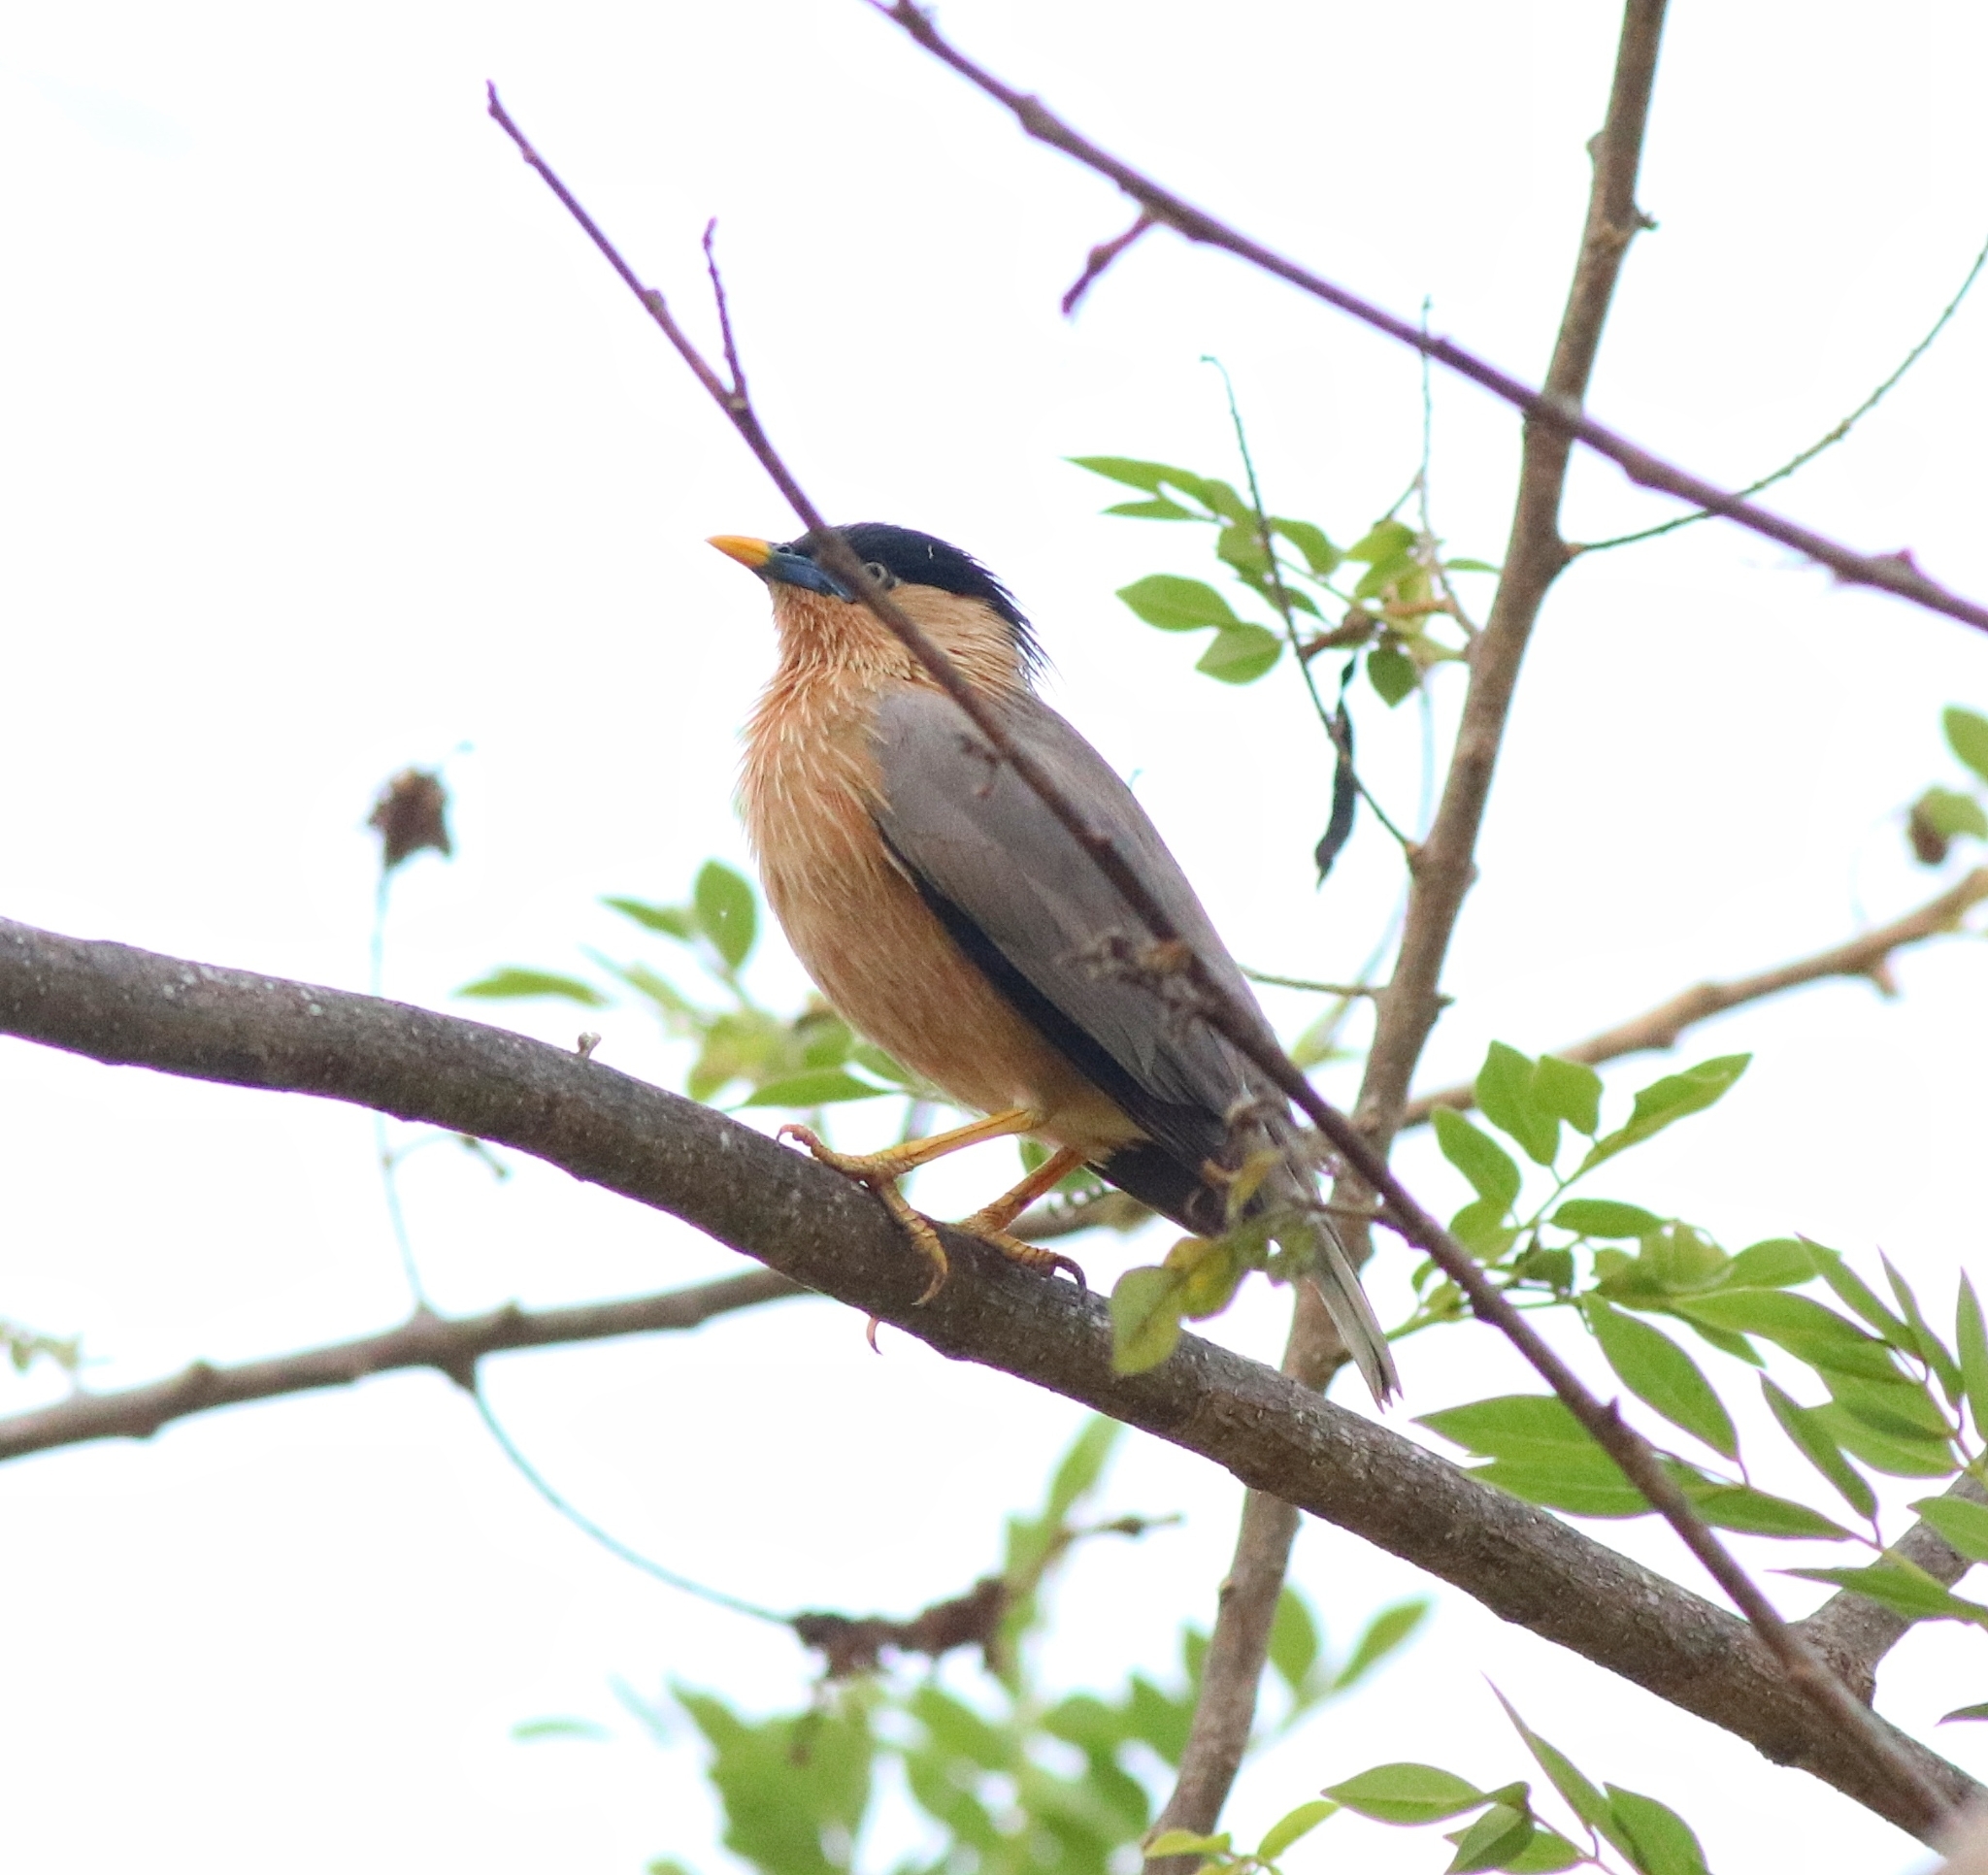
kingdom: Animalia
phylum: Chordata
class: Aves
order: Passeriformes
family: Sturnidae
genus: Sturnia
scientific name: Sturnia pagodarum
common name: Brahminy starling
